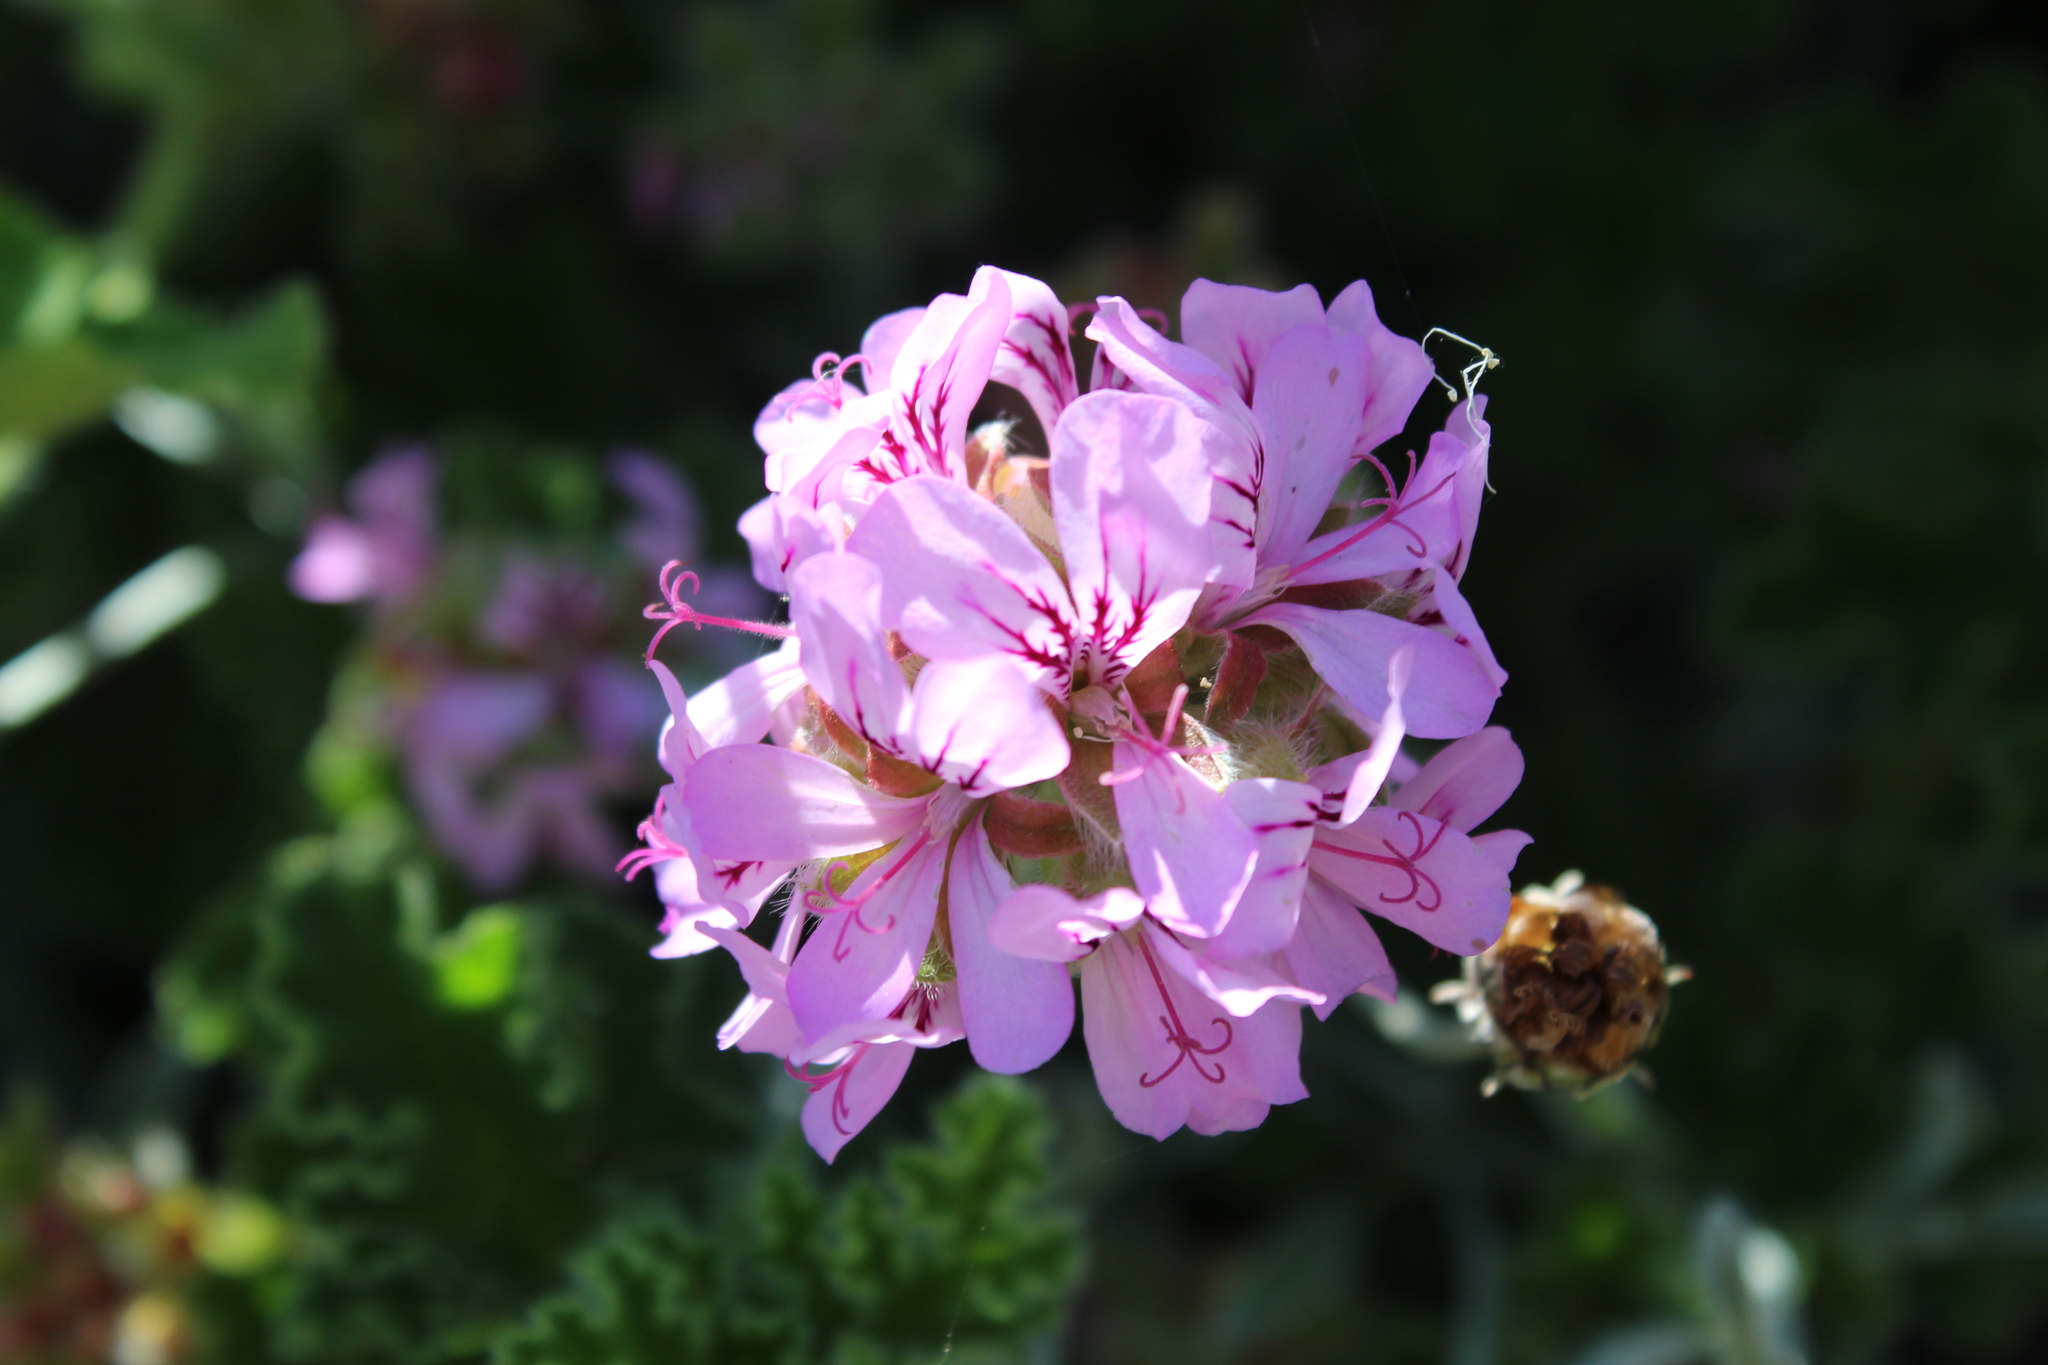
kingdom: Plantae
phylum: Tracheophyta
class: Magnoliopsida
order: Geraniales
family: Geraniaceae
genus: Pelargonium
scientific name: Pelargonium capitatum
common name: Rose scented geranium
